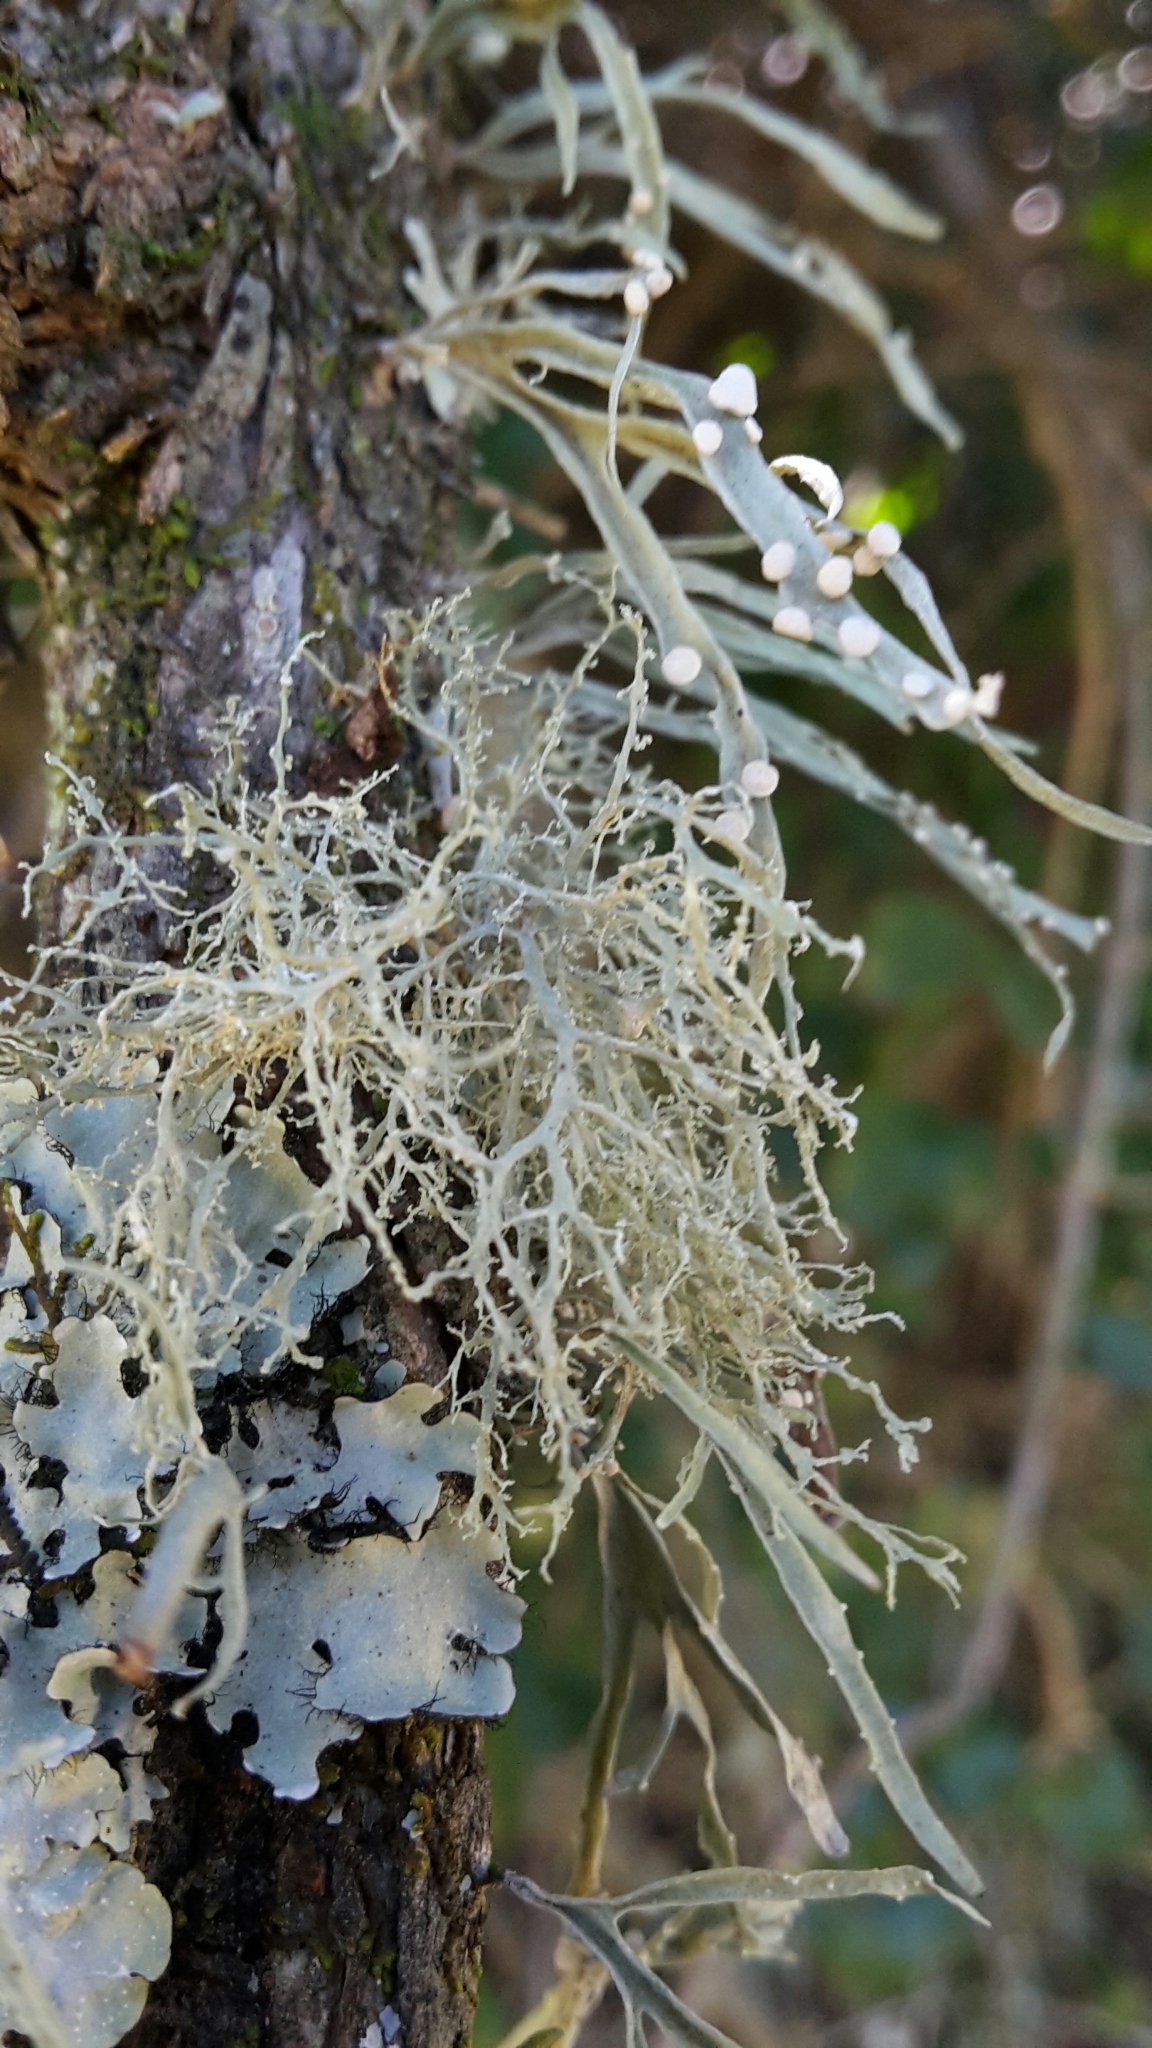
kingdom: Fungi
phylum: Ascomycota
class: Lecanoromycetes
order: Lecanorales
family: Ramalinaceae
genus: Ramalina
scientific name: Ramalina celastri
